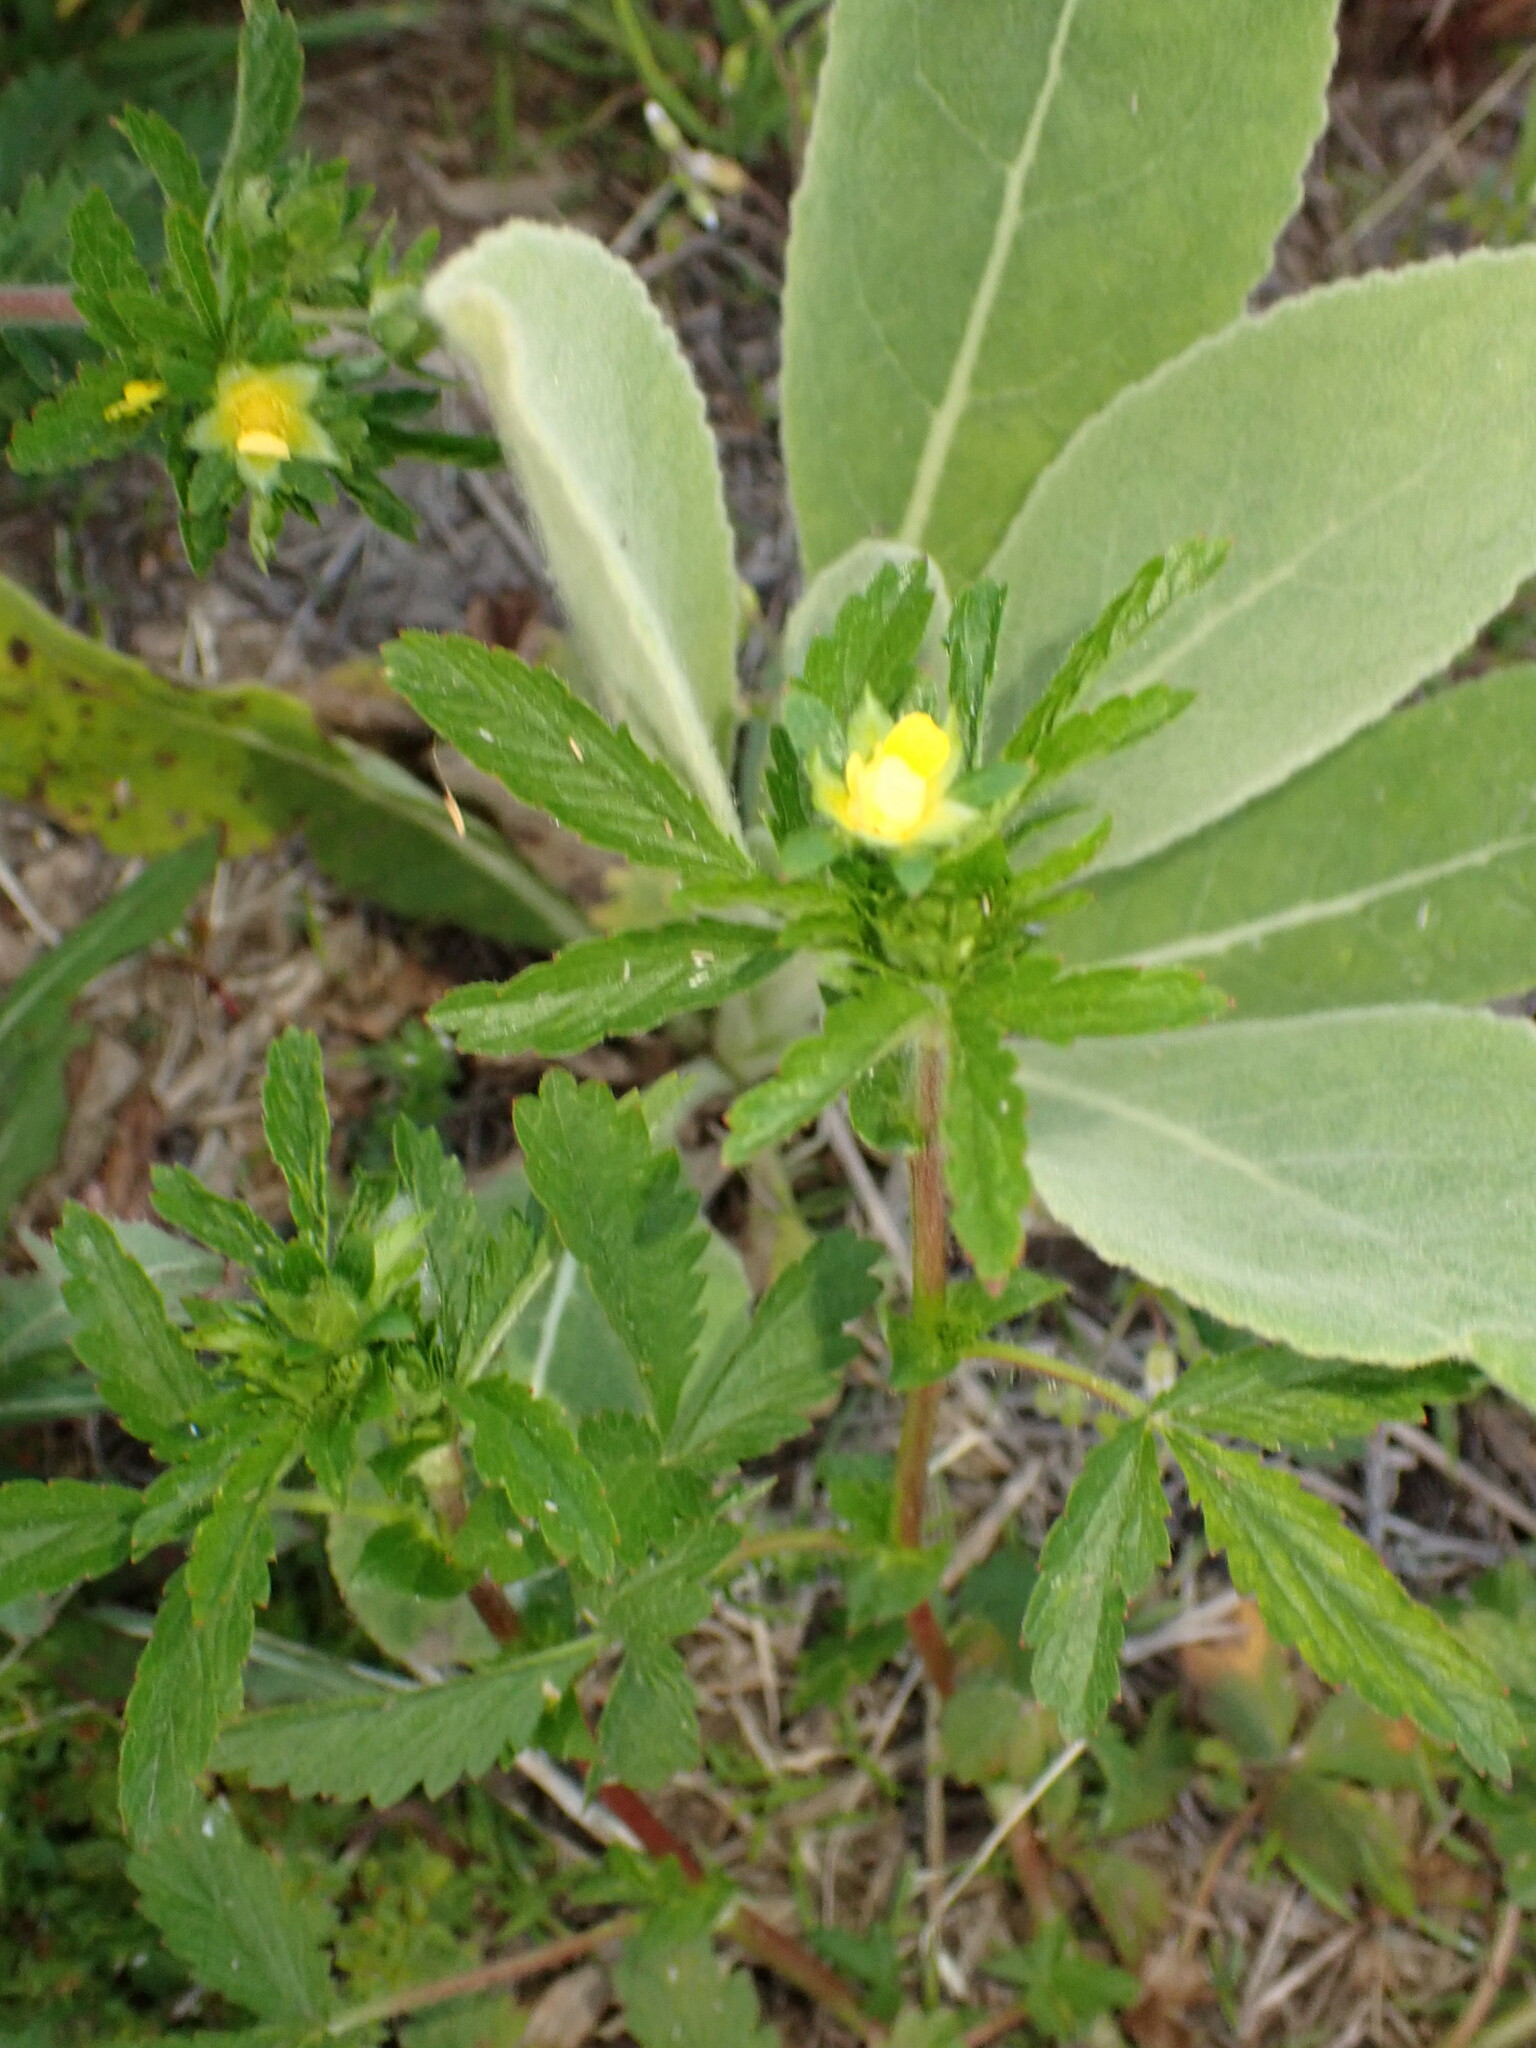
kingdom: Plantae
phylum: Tracheophyta
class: Magnoliopsida
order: Rosales
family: Rosaceae
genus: Potentilla
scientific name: Potentilla norvegica
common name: Ternate-leaved cinquefoil
